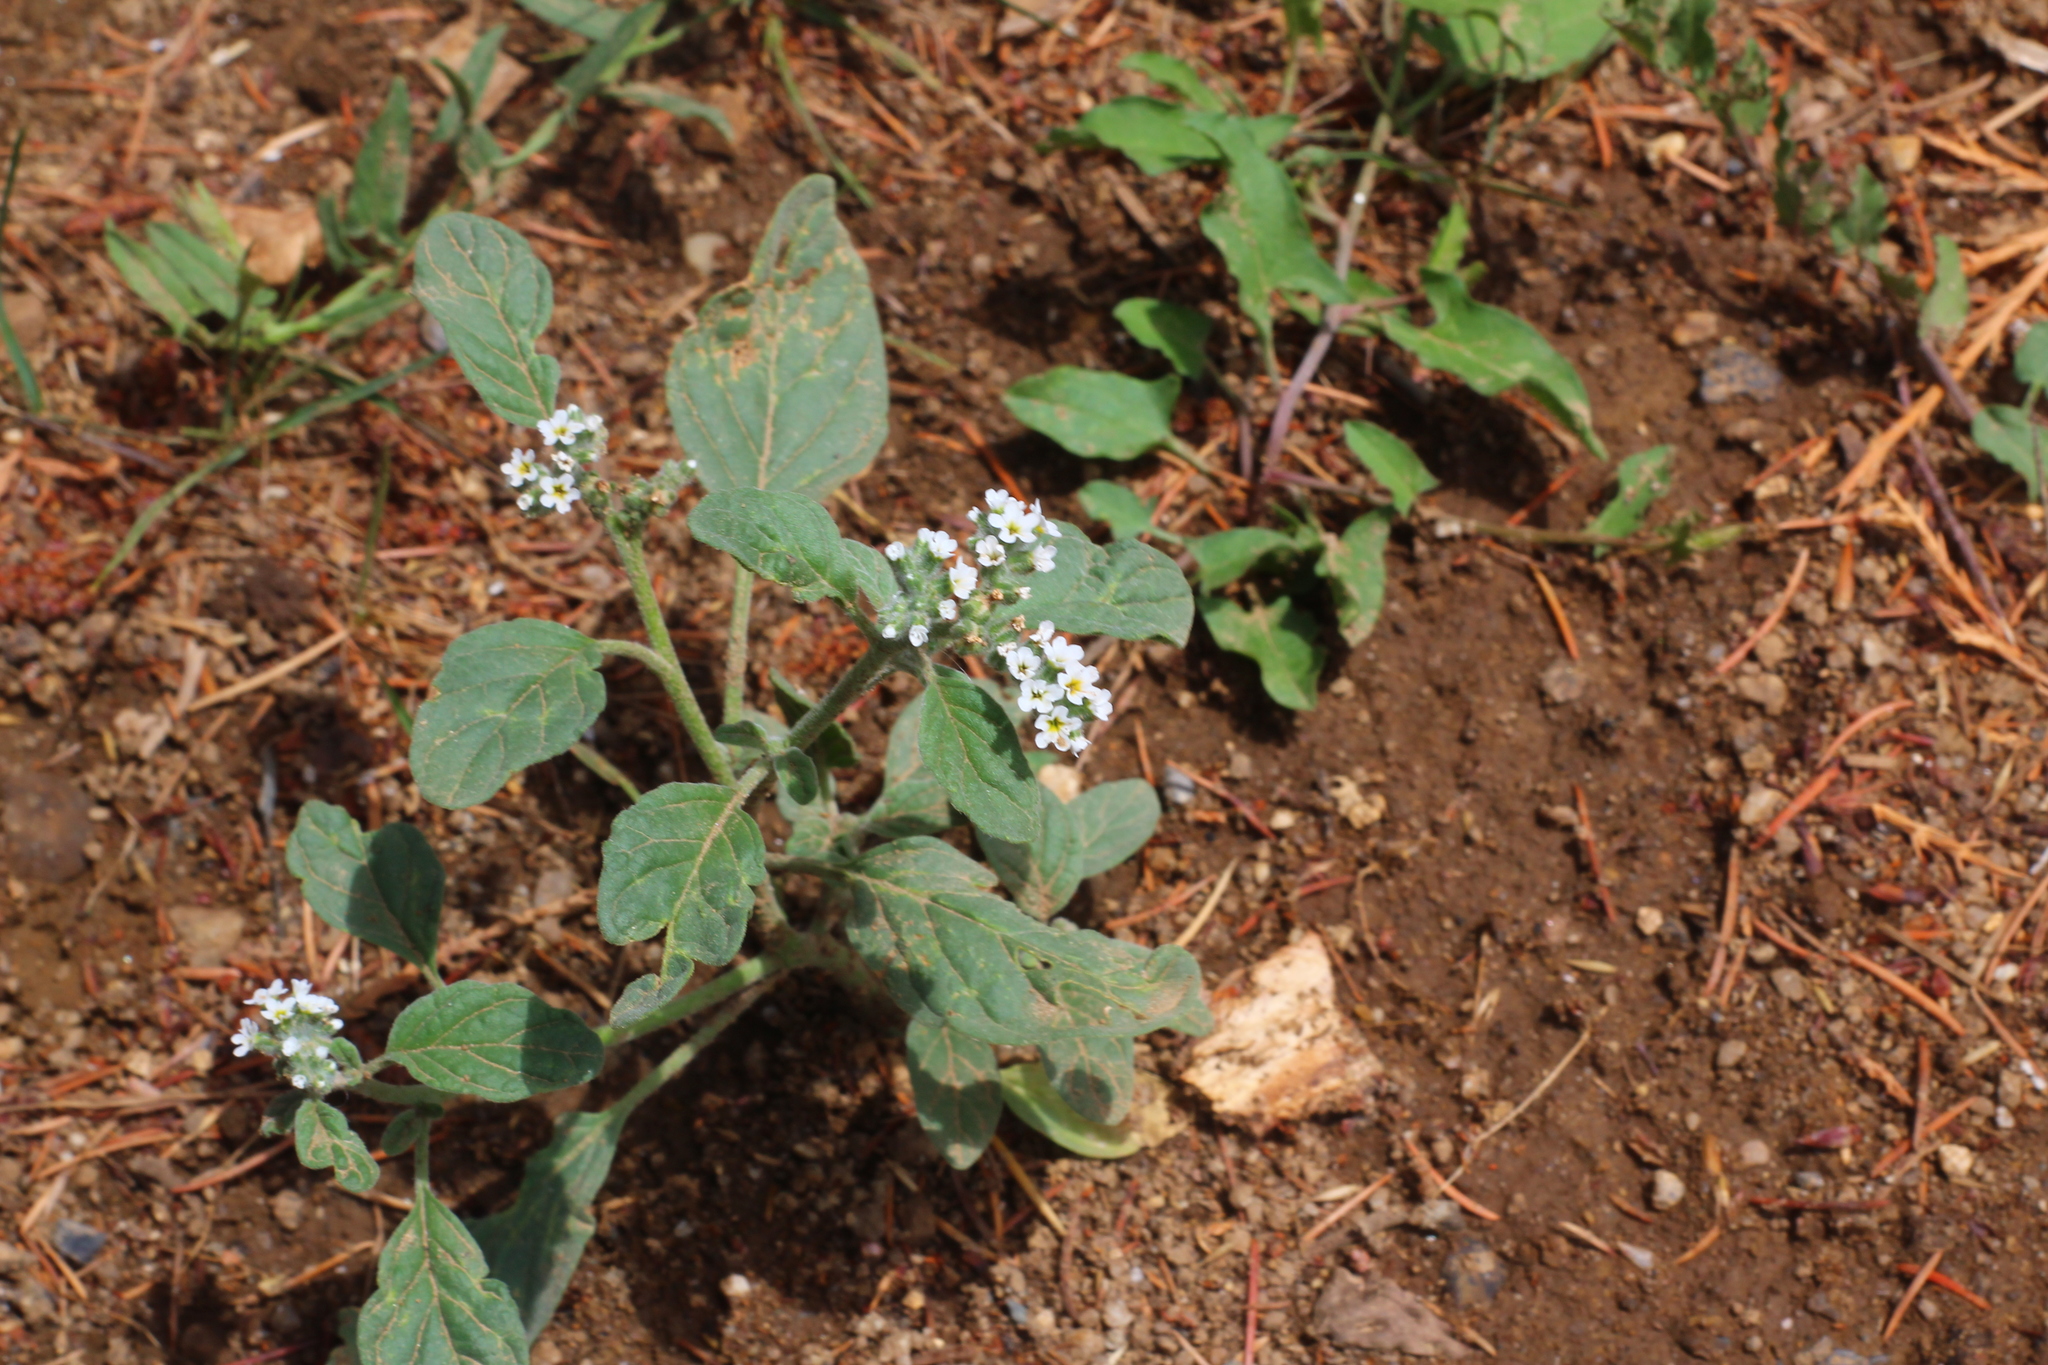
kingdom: Plantae
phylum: Tracheophyta
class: Magnoliopsida
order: Boraginales
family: Heliotropiaceae
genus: Heliotropium
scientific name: Heliotropium europaeum
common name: European heliotrope
